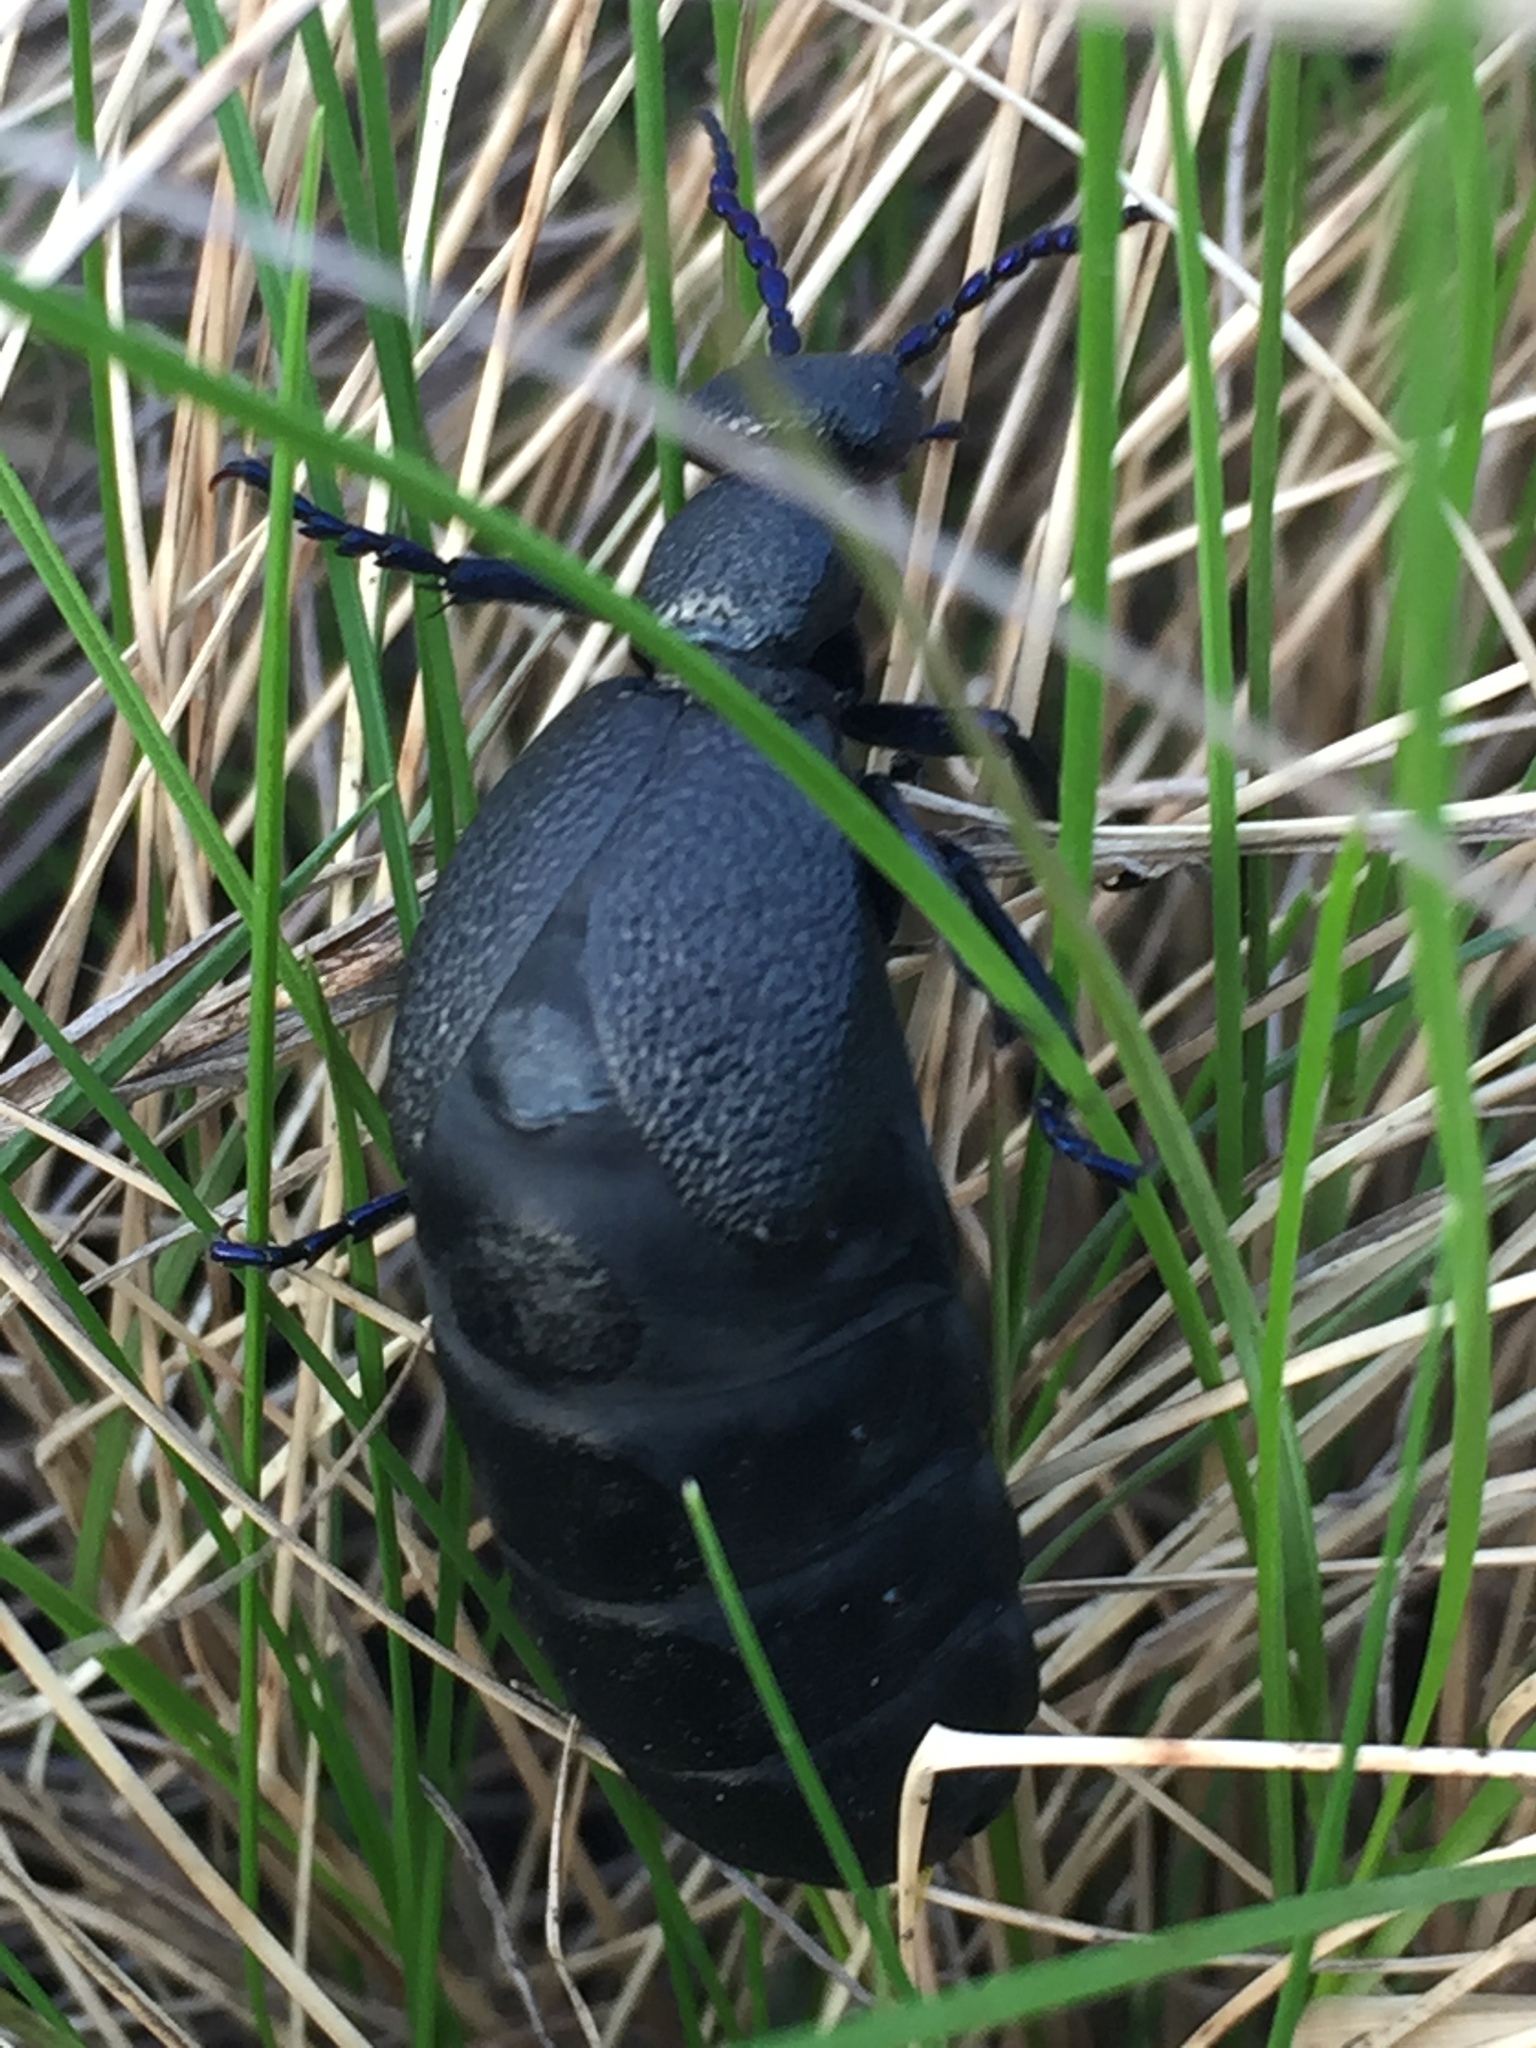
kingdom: Animalia
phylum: Arthropoda
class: Insecta
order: Coleoptera
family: Meloidae
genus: Meloe
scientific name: Meloe proscarabaeus
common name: Black oil-beetle
